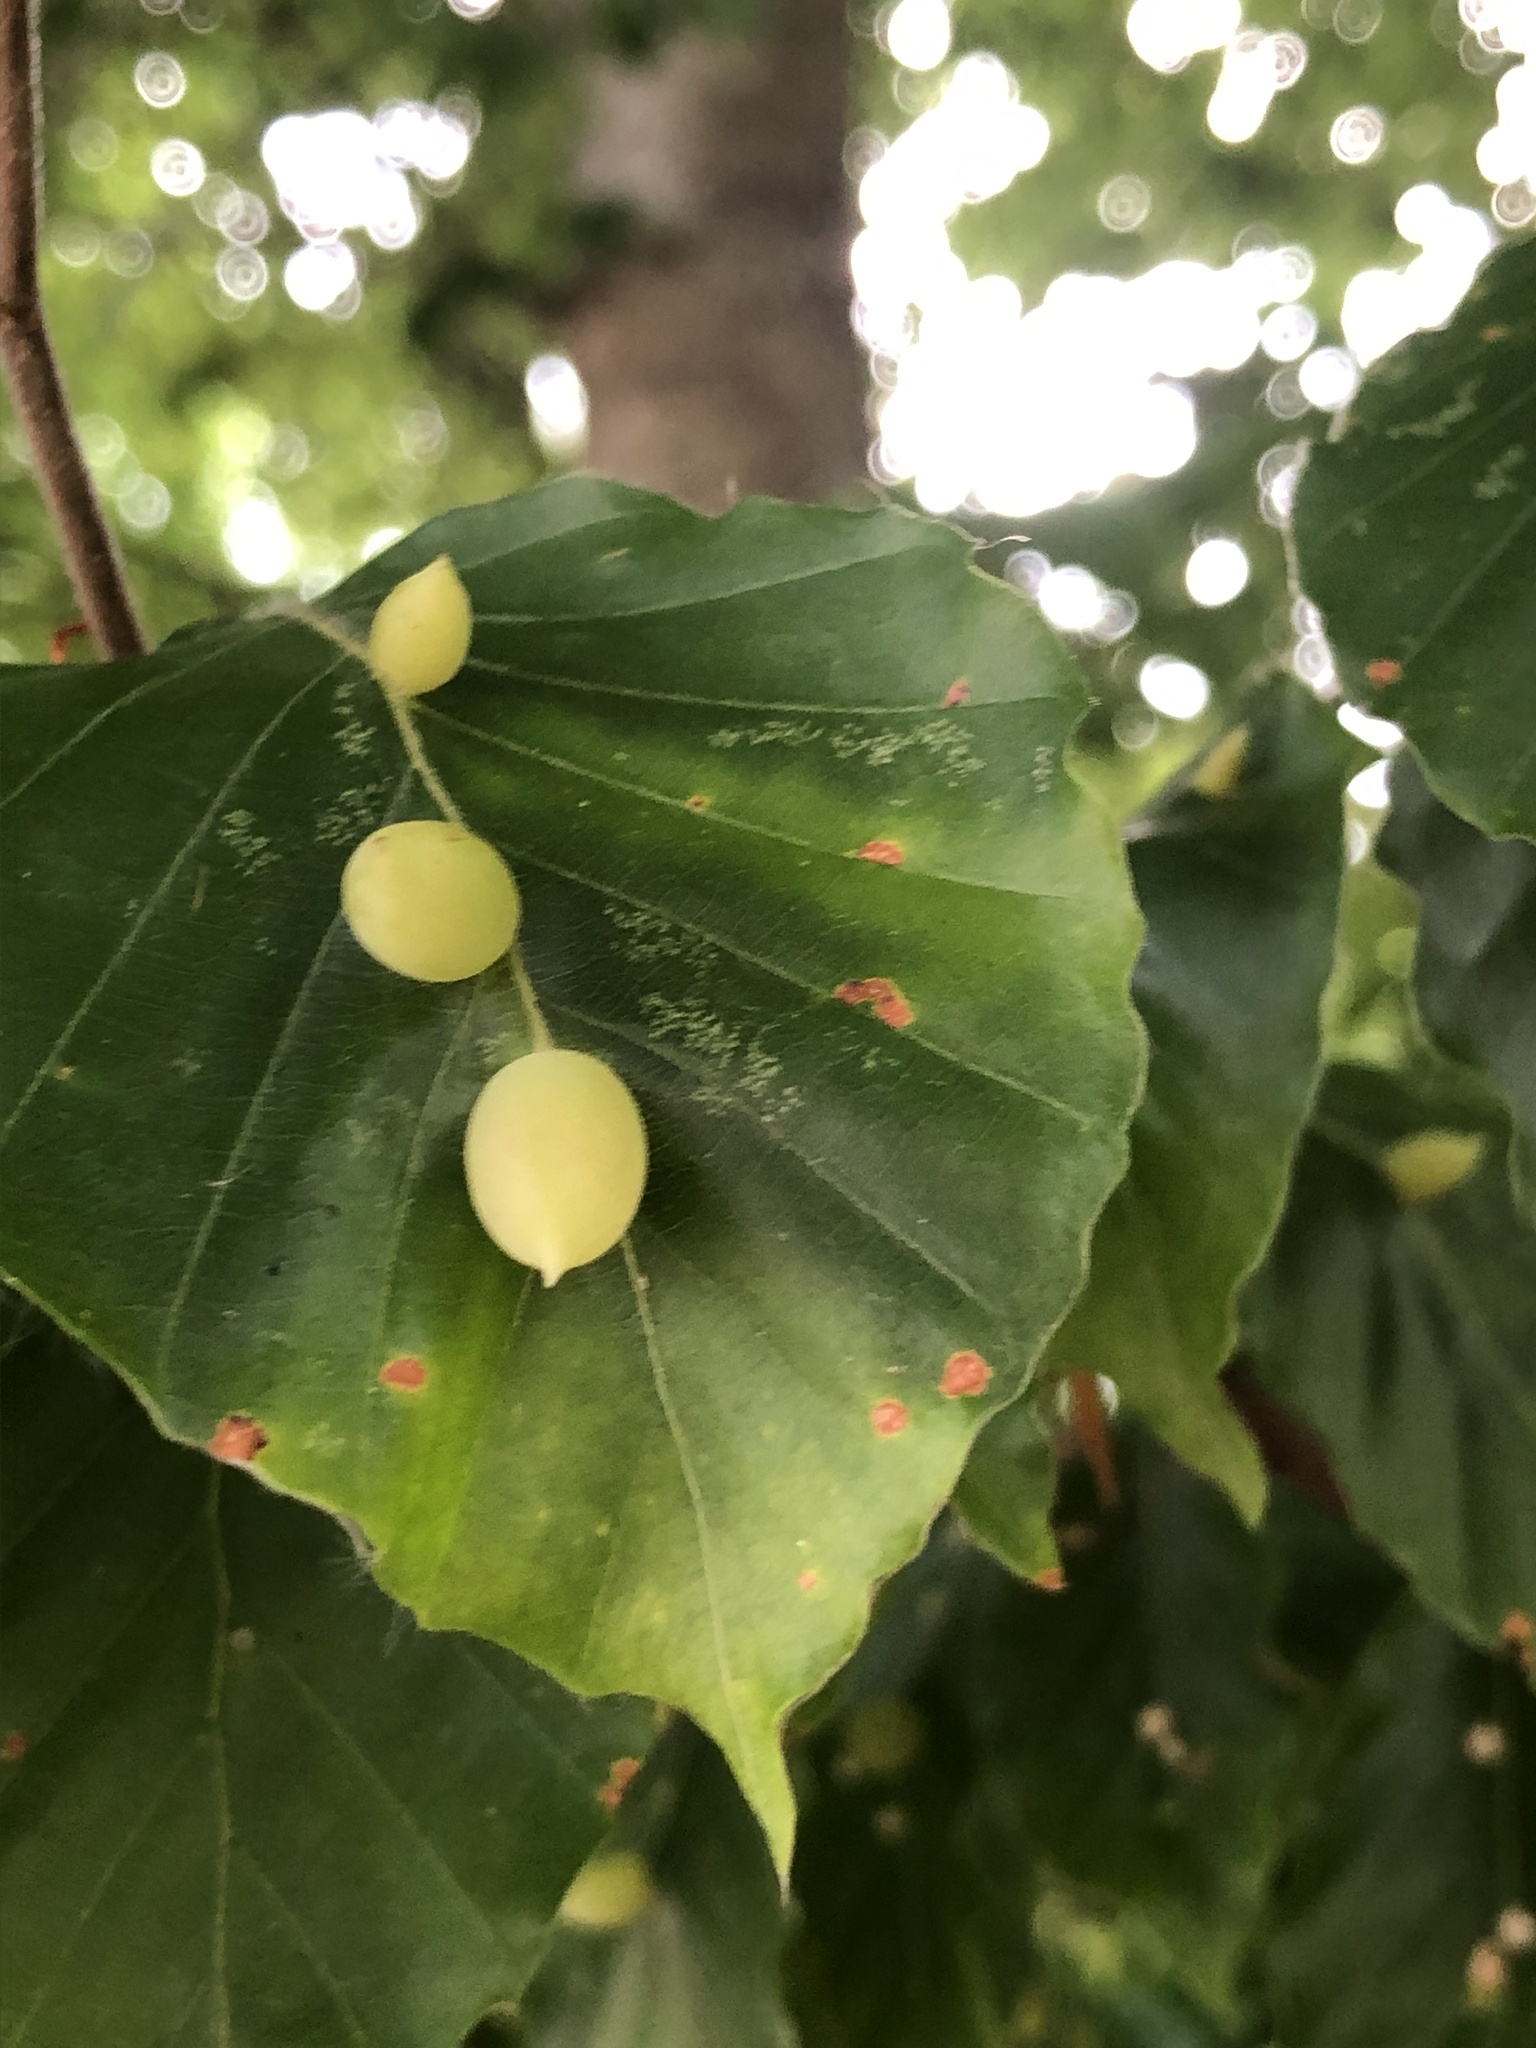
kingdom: Animalia
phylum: Arthropoda
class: Insecta
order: Diptera
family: Cecidomyiidae
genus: Mikiola
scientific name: Mikiola fagi
